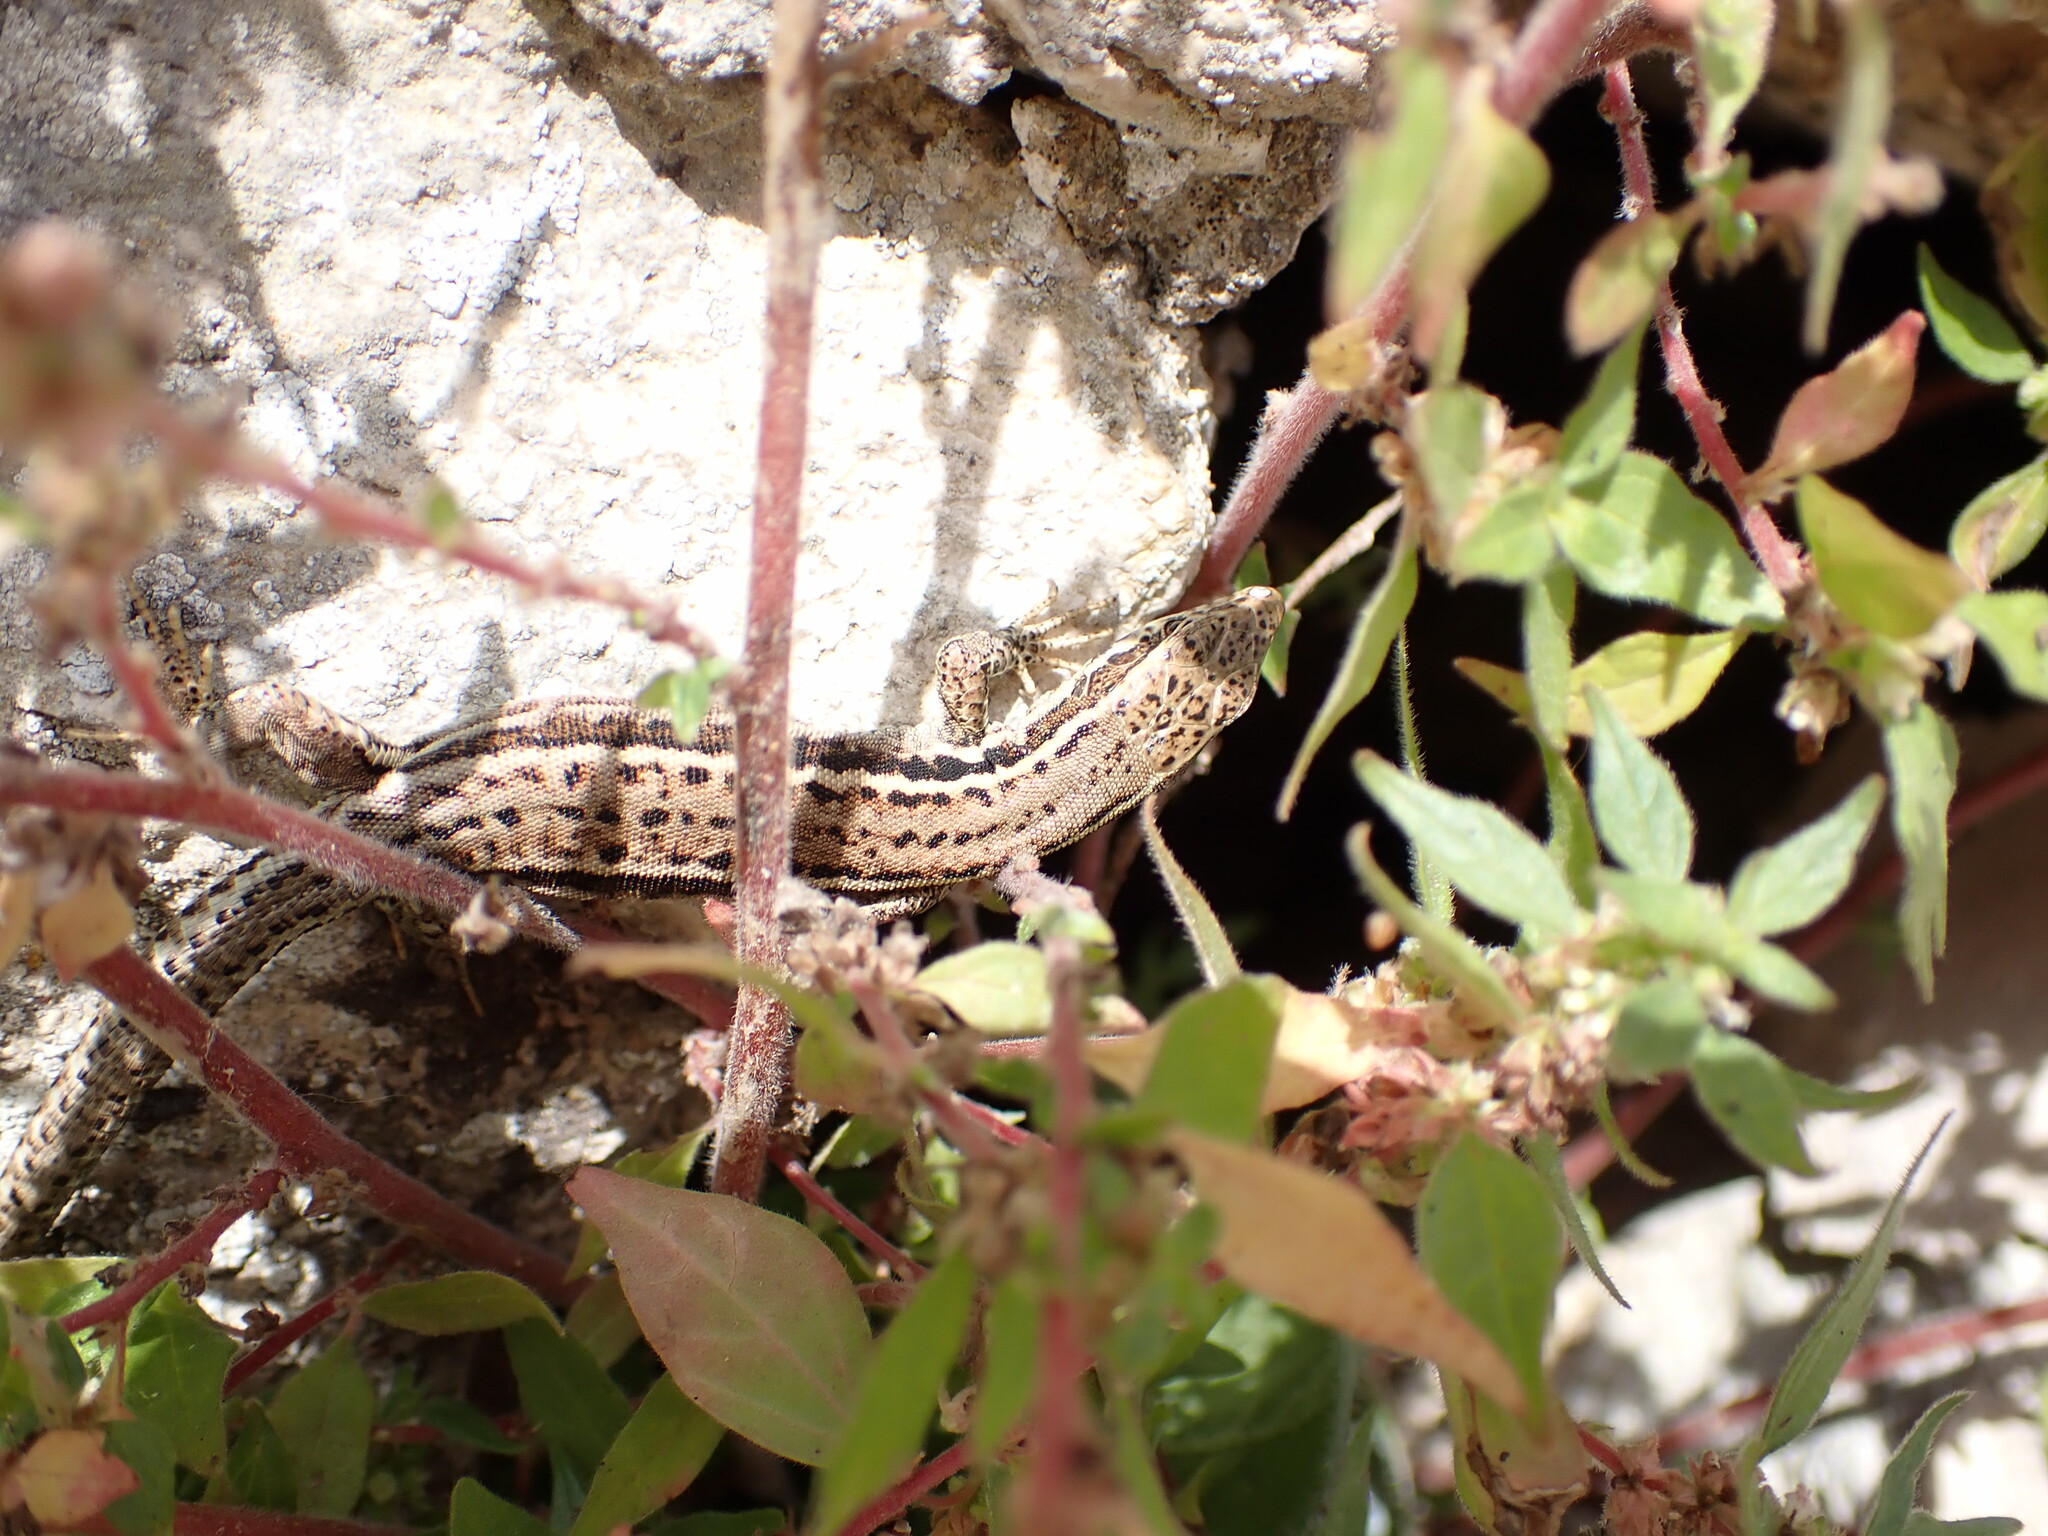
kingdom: Animalia
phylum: Chordata
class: Squamata
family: Lacertidae
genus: Podarcis
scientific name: Podarcis muralis
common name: Common wall lizard
